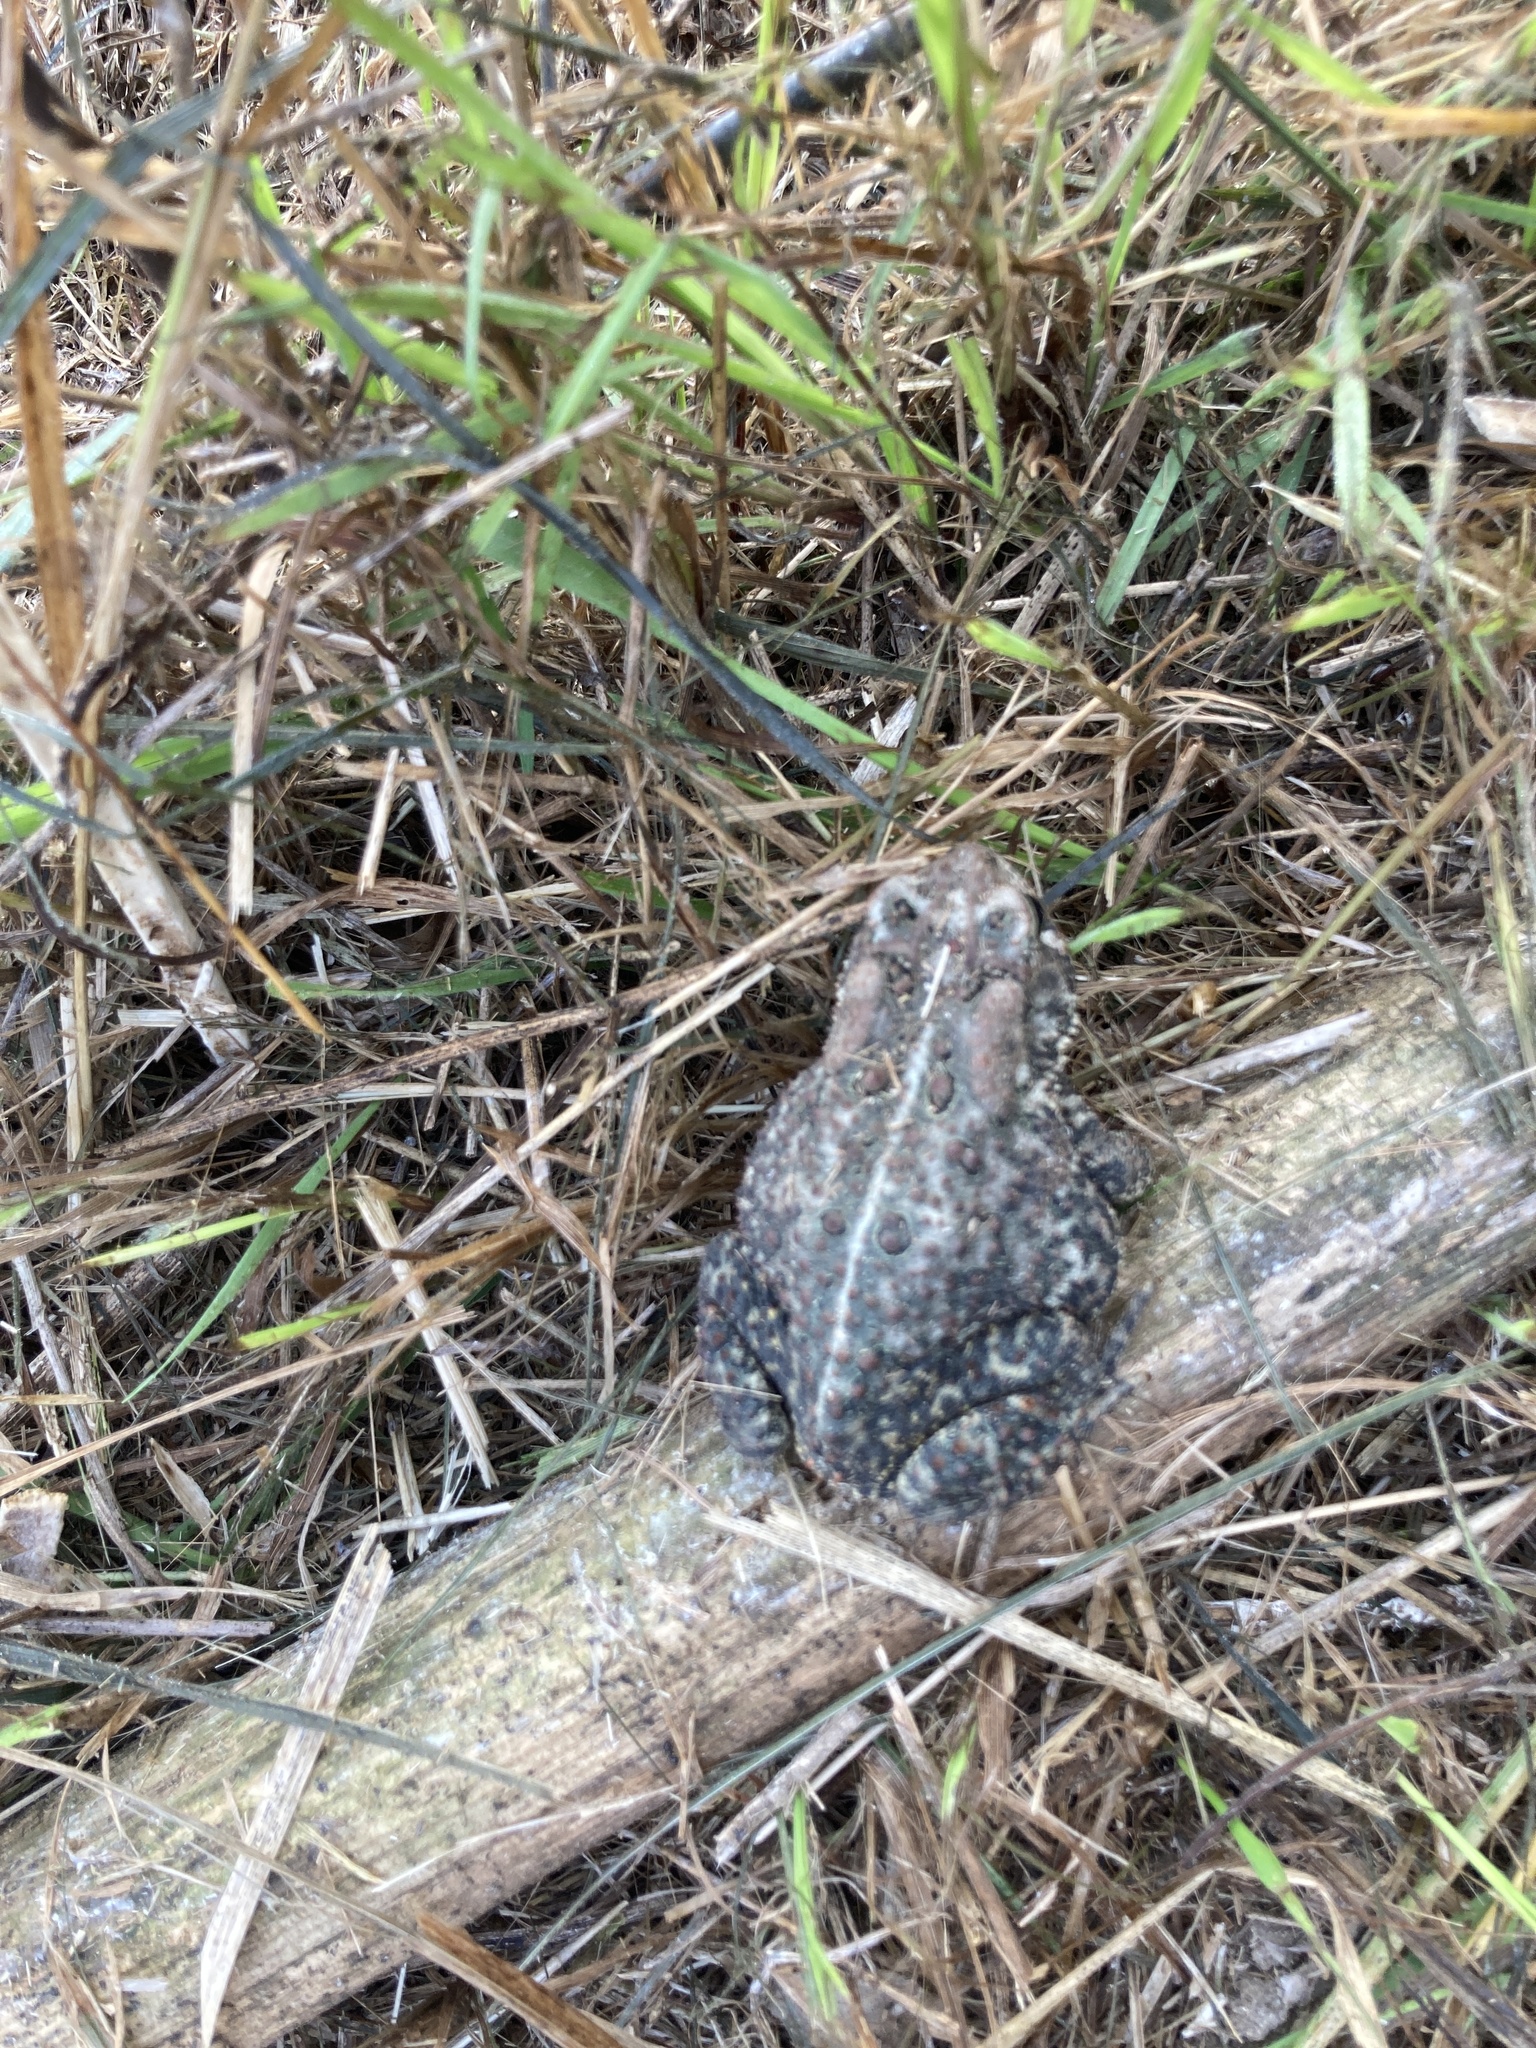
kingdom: Animalia
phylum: Chordata
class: Amphibia
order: Anura
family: Bufonidae
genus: Anaxyrus
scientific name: Anaxyrus americanus
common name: American toad
